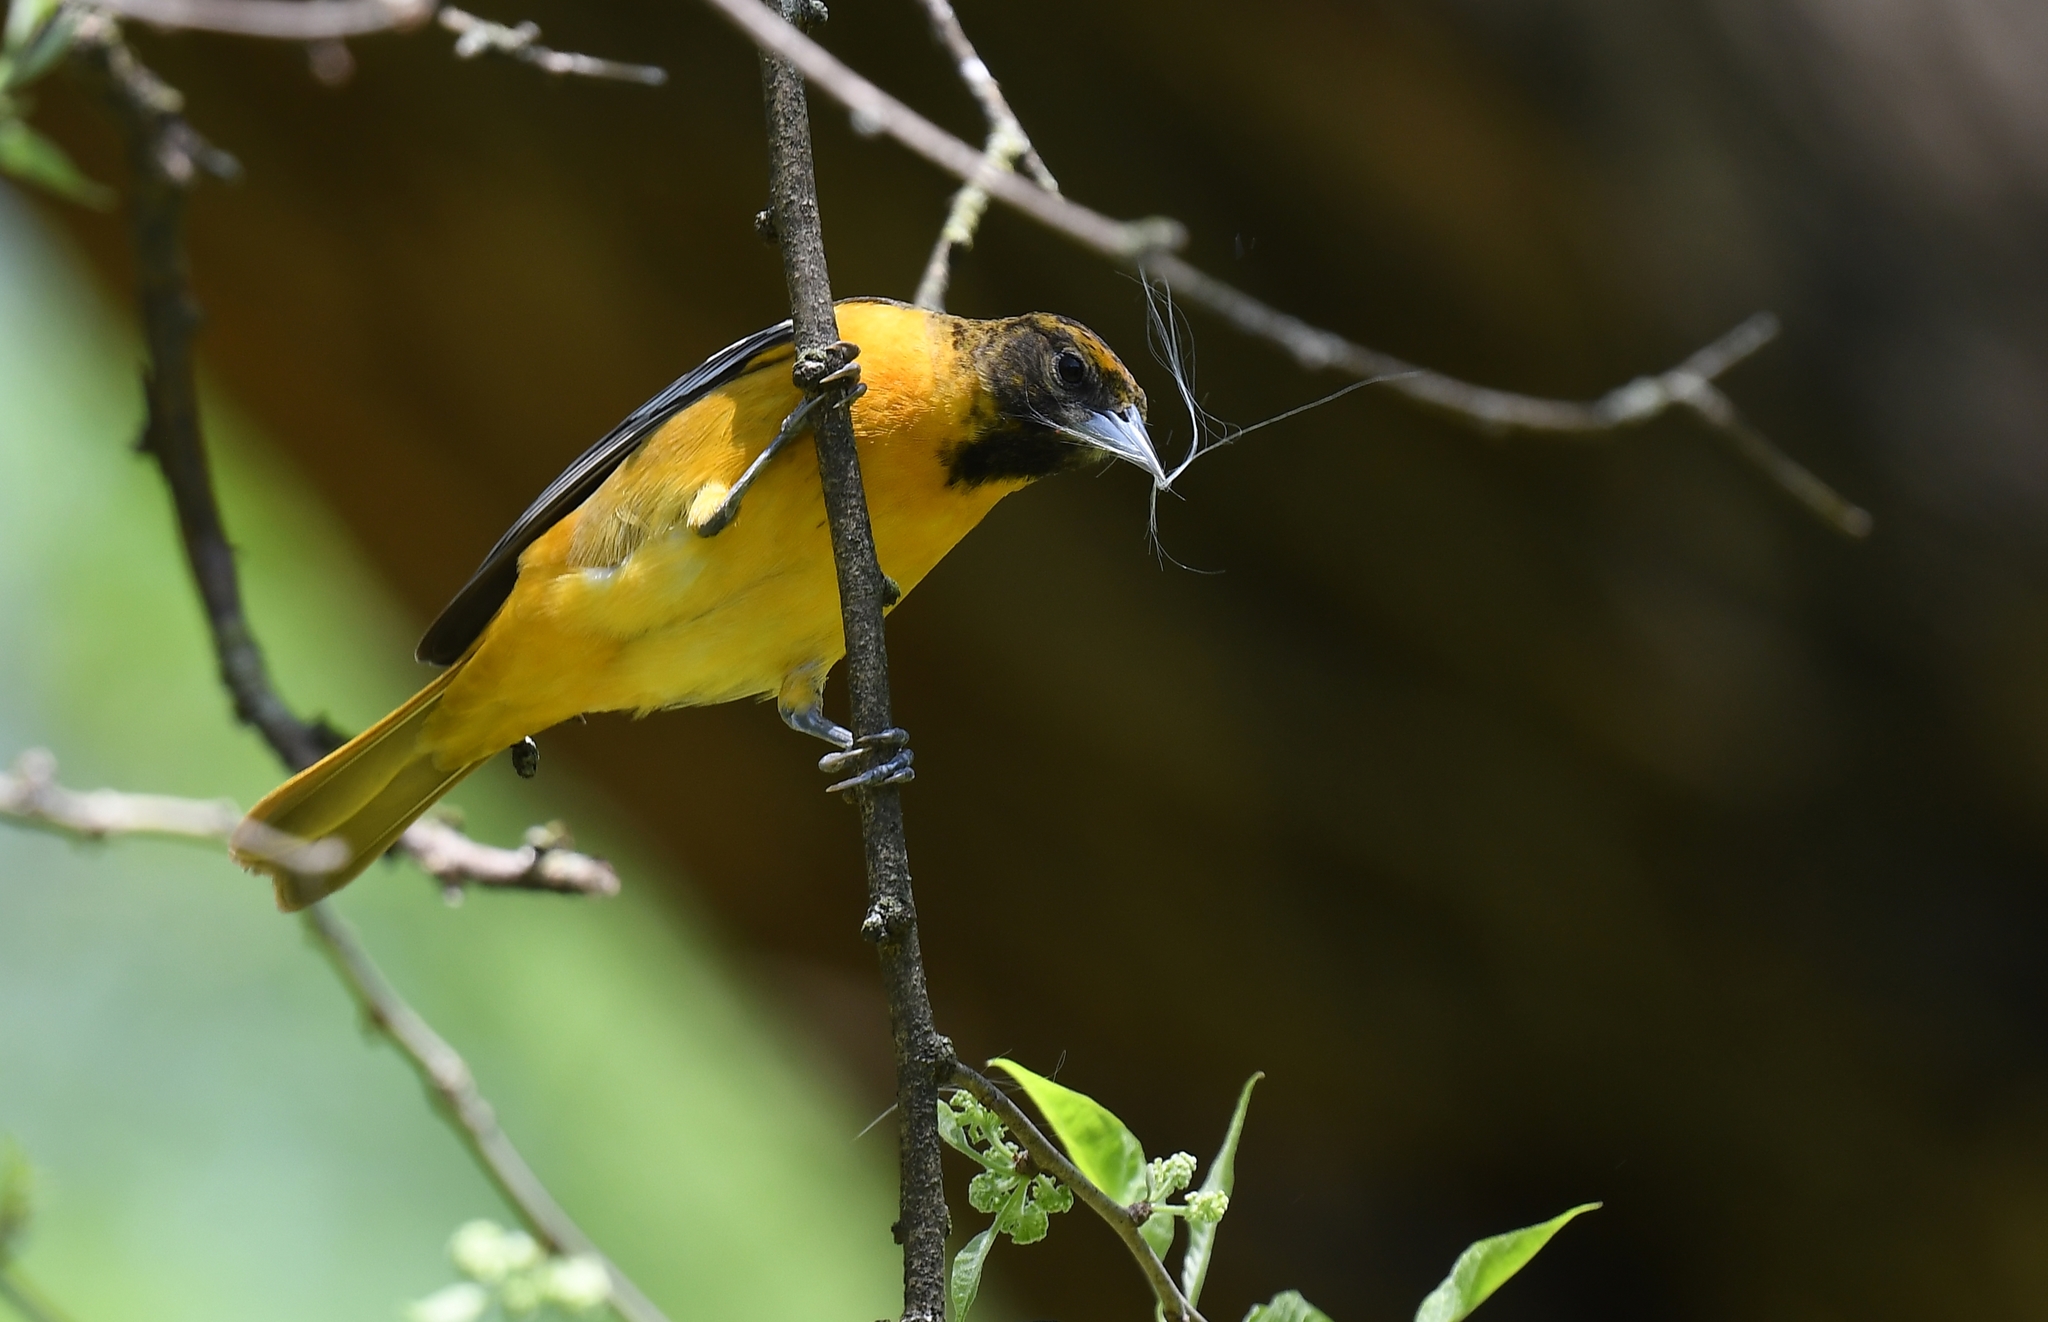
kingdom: Animalia
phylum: Chordata
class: Aves
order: Passeriformes
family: Icteridae
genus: Icterus
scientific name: Icterus galbula
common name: Baltimore oriole
